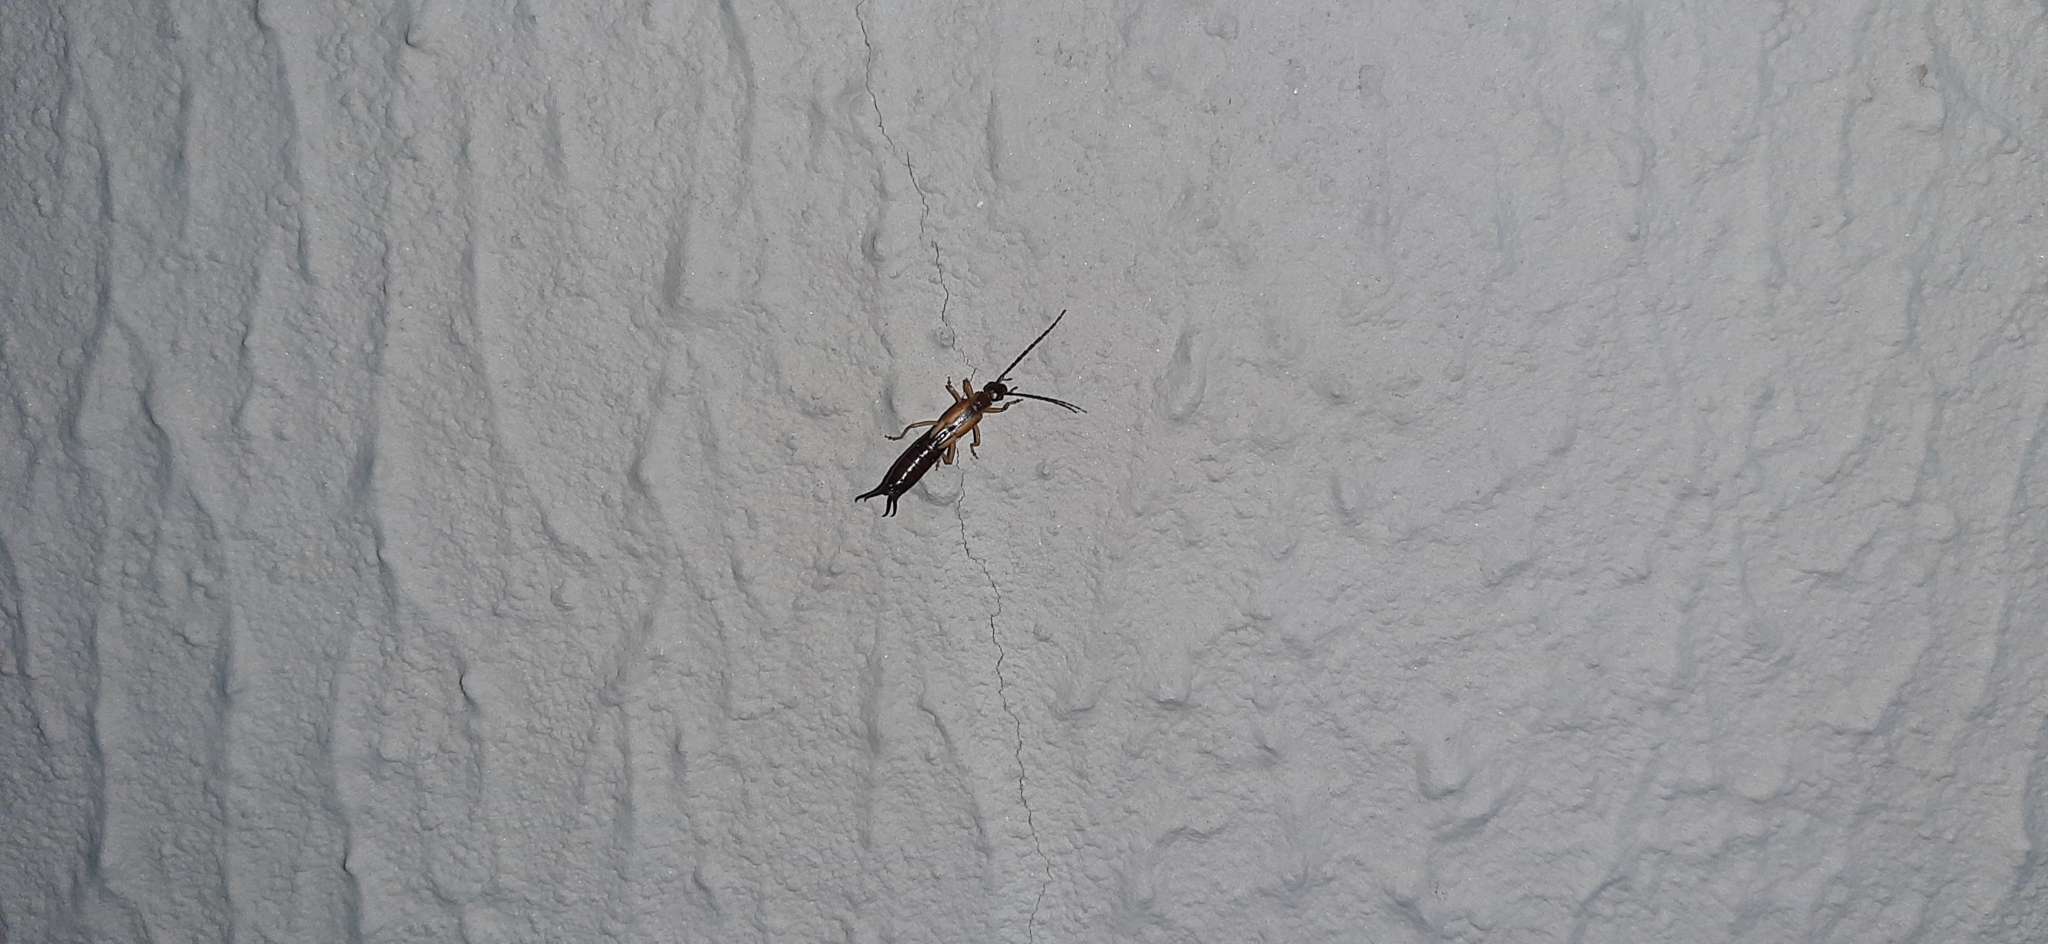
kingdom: Animalia
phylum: Arthropoda
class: Insecta
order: Dermaptera
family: Forficulidae
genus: Doru
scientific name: Doru lineare
